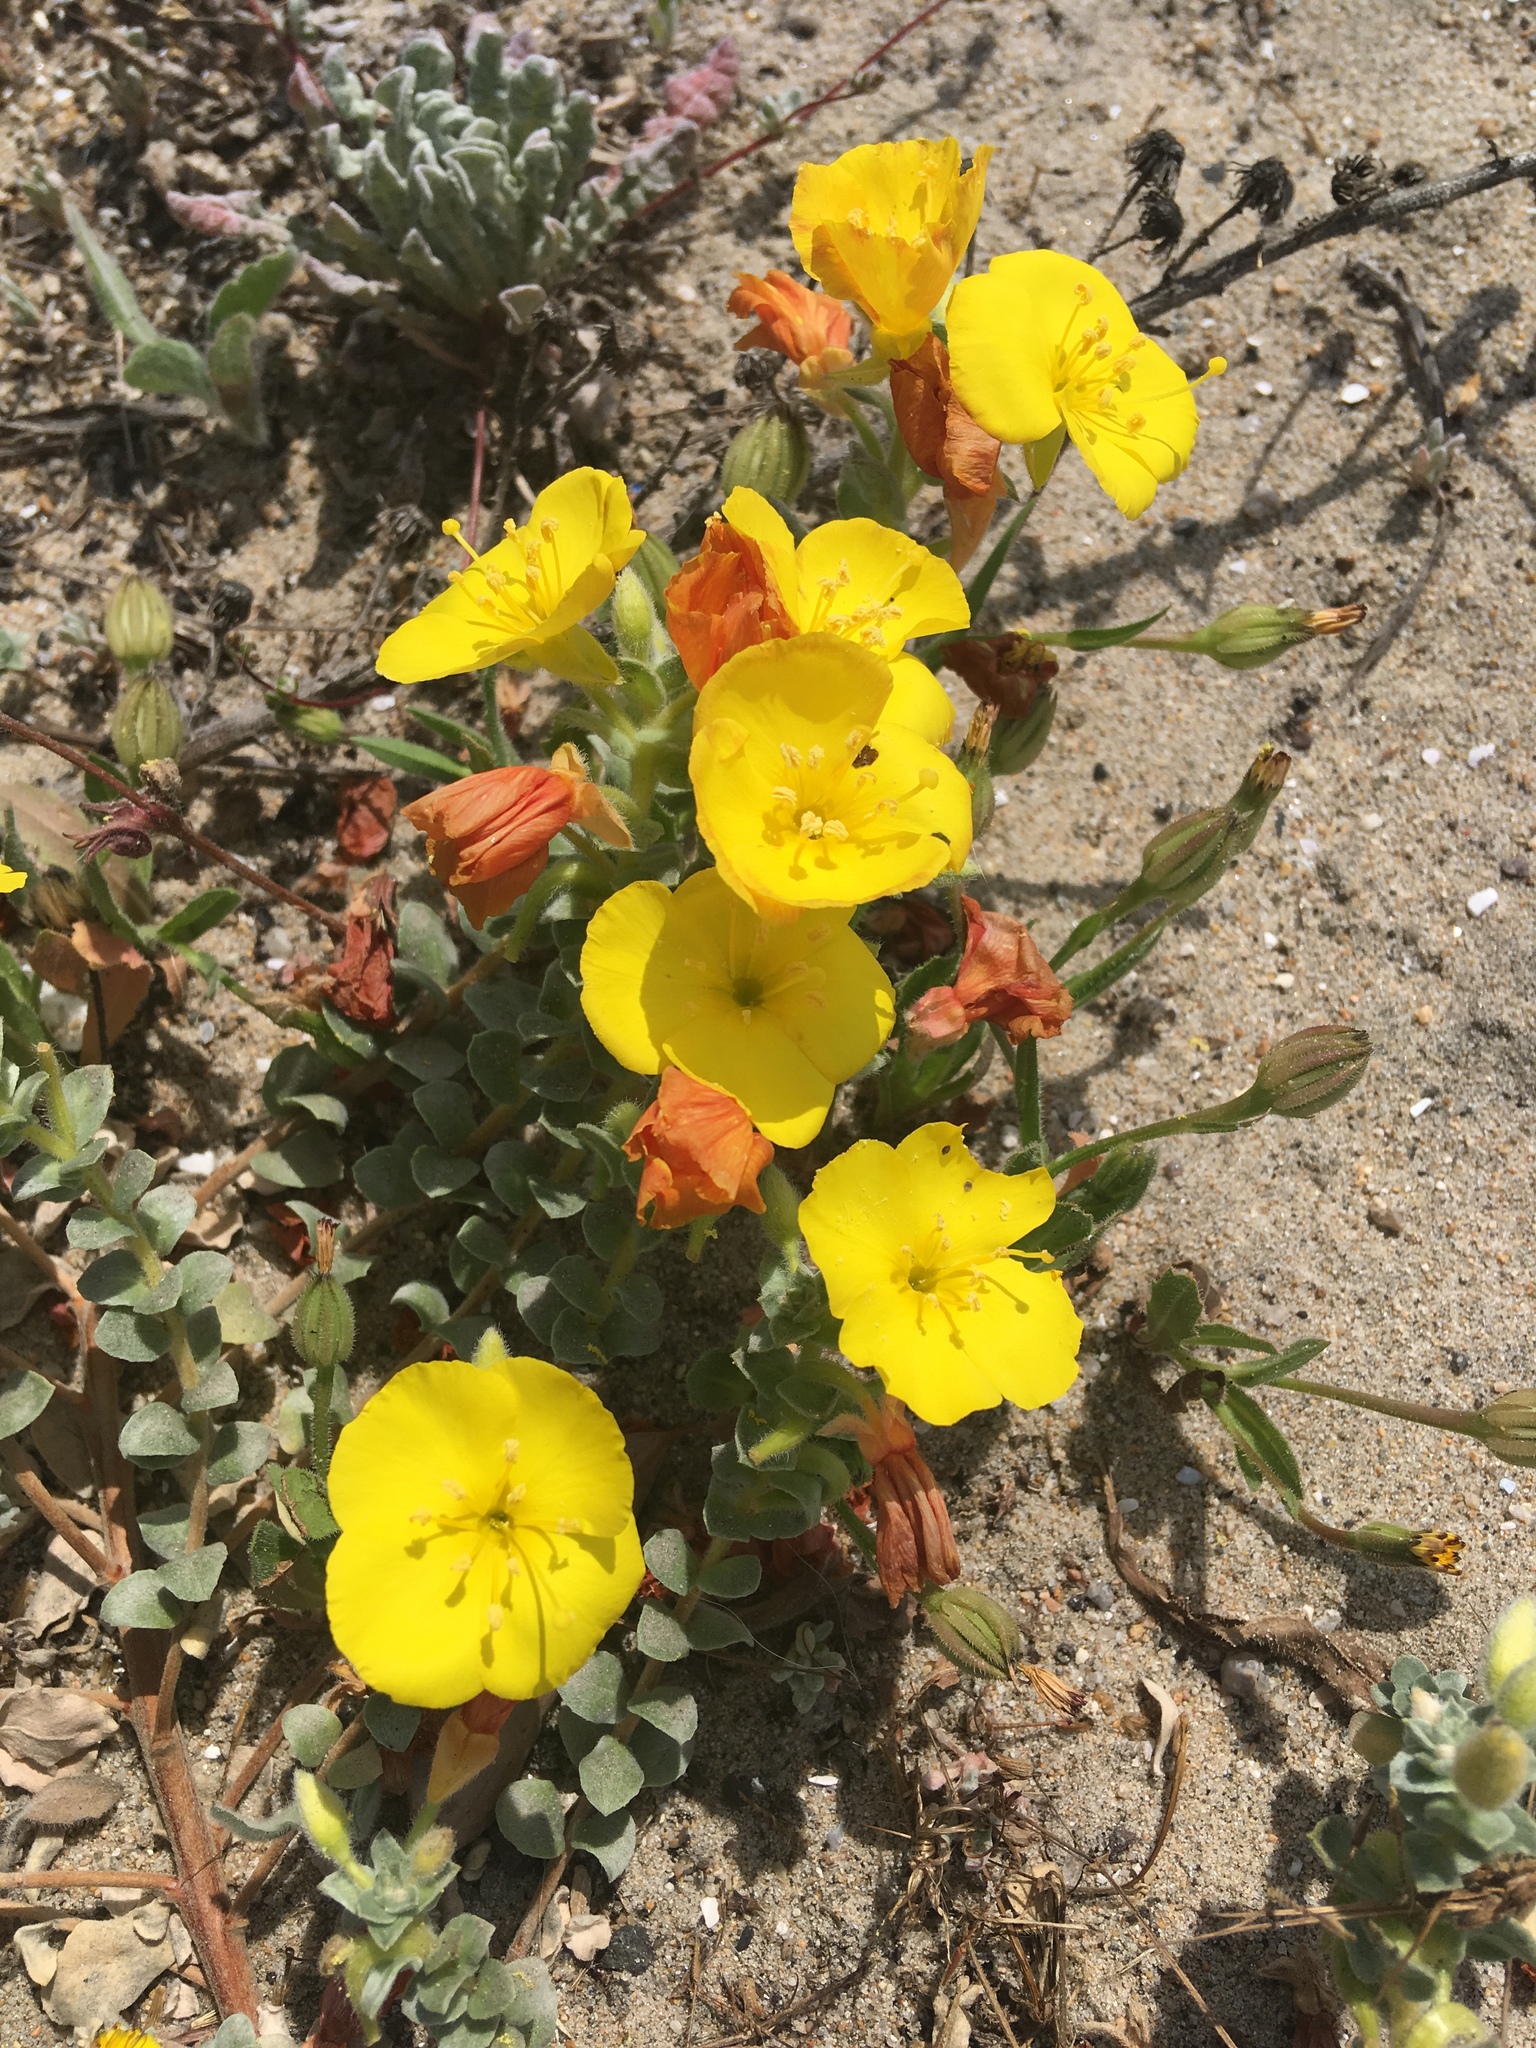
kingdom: Plantae
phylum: Tracheophyta
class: Magnoliopsida
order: Myrtales
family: Onagraceae
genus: Camissoniopsis
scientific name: Camissoniopsis cheiranthifolia
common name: Beach suncup
